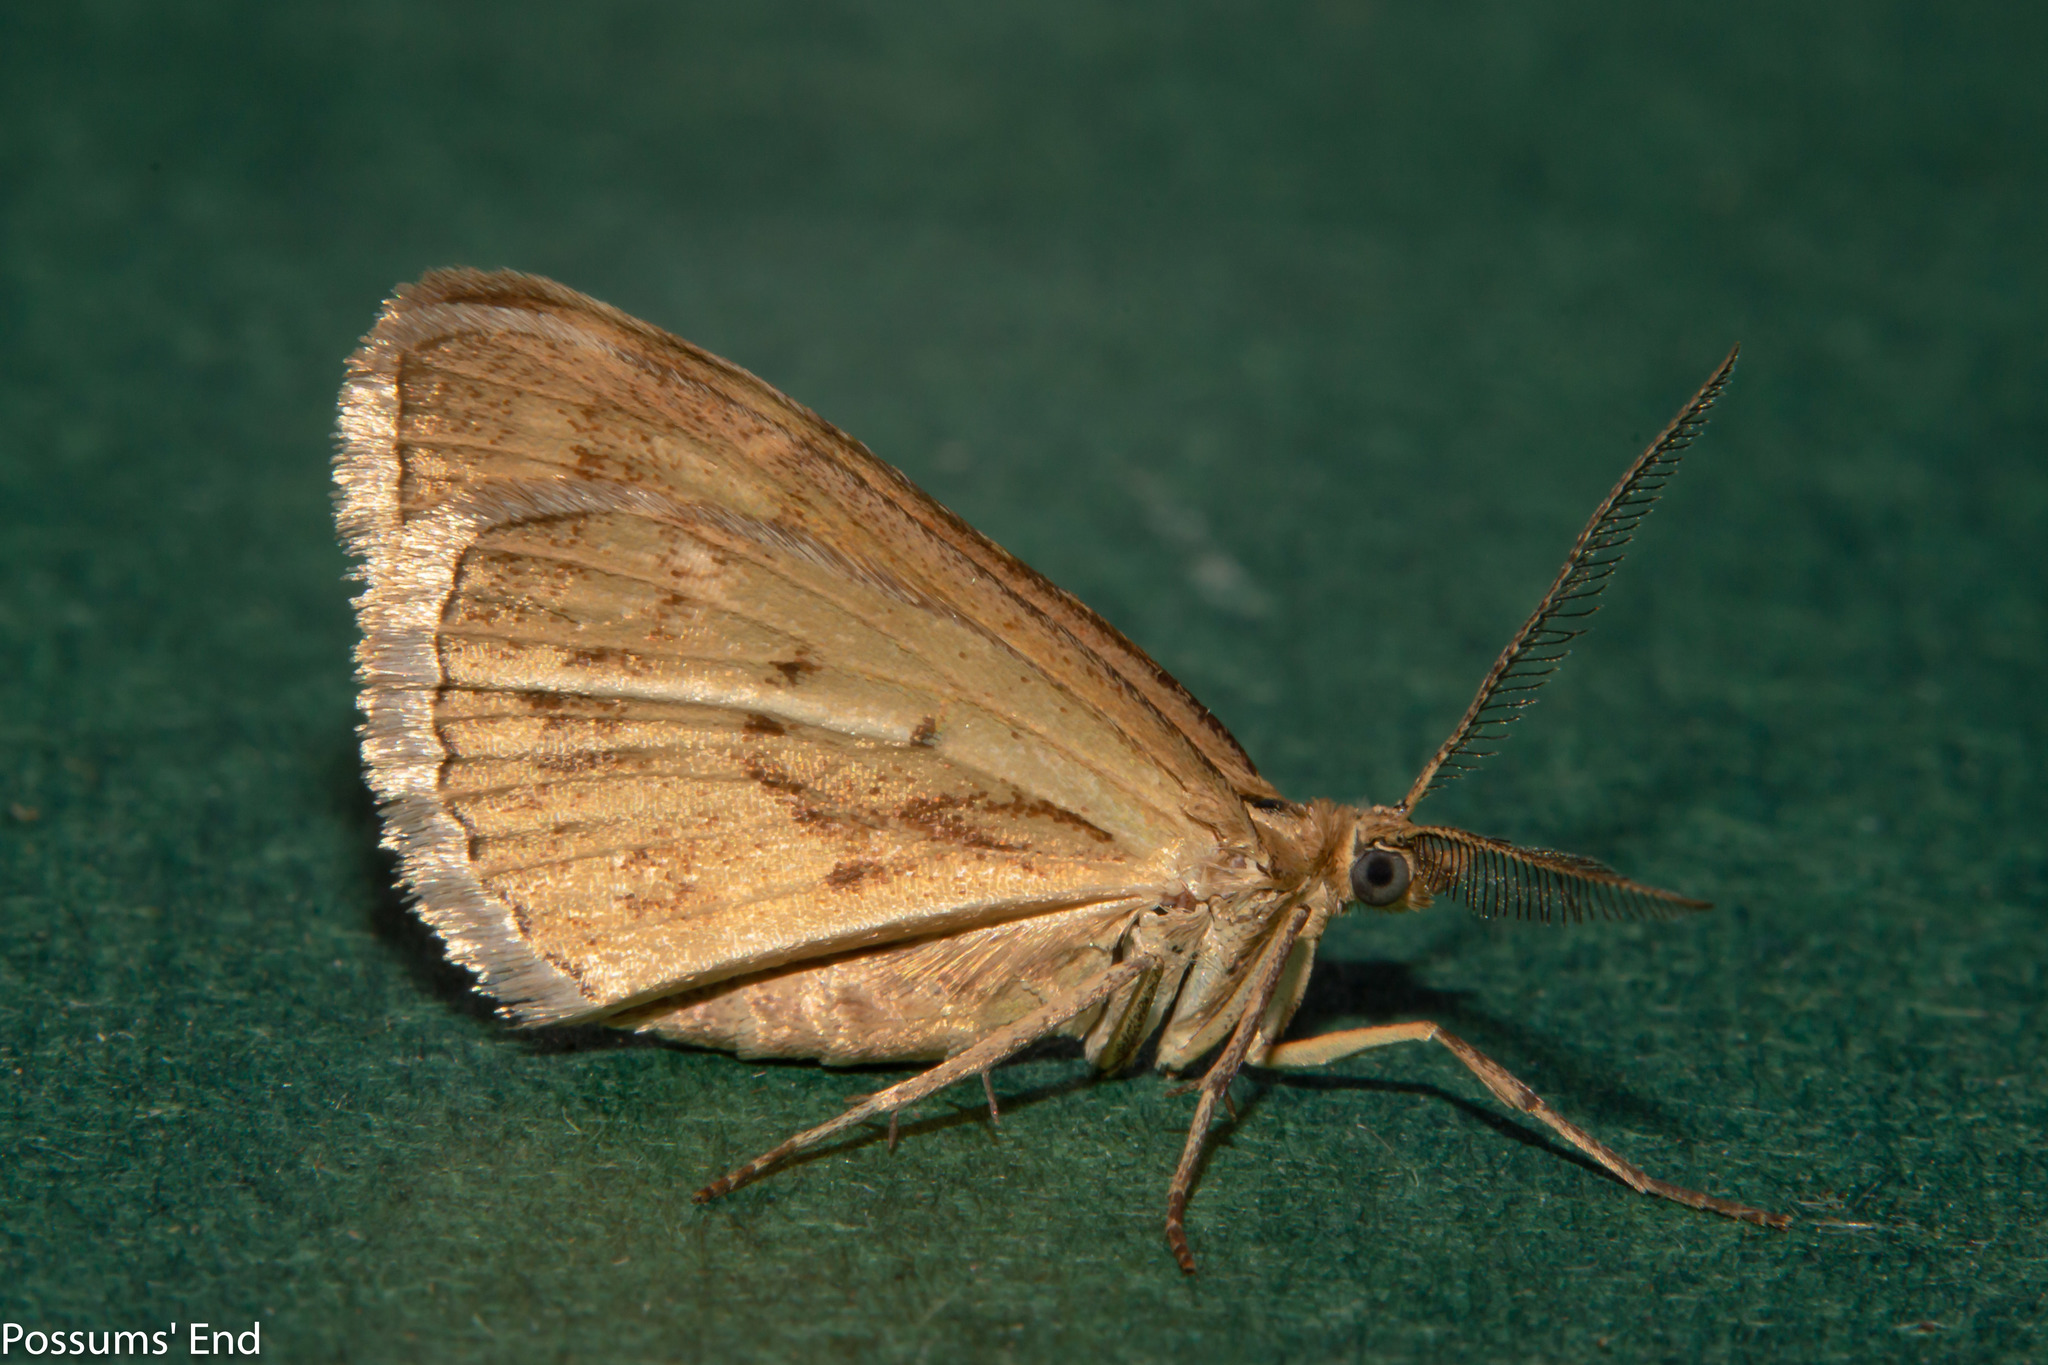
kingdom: Animalia
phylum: Arthropoda
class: Insecta
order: Lepidoptera
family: Geometridae
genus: Asaphodes
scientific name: Asaphodes abrogata
